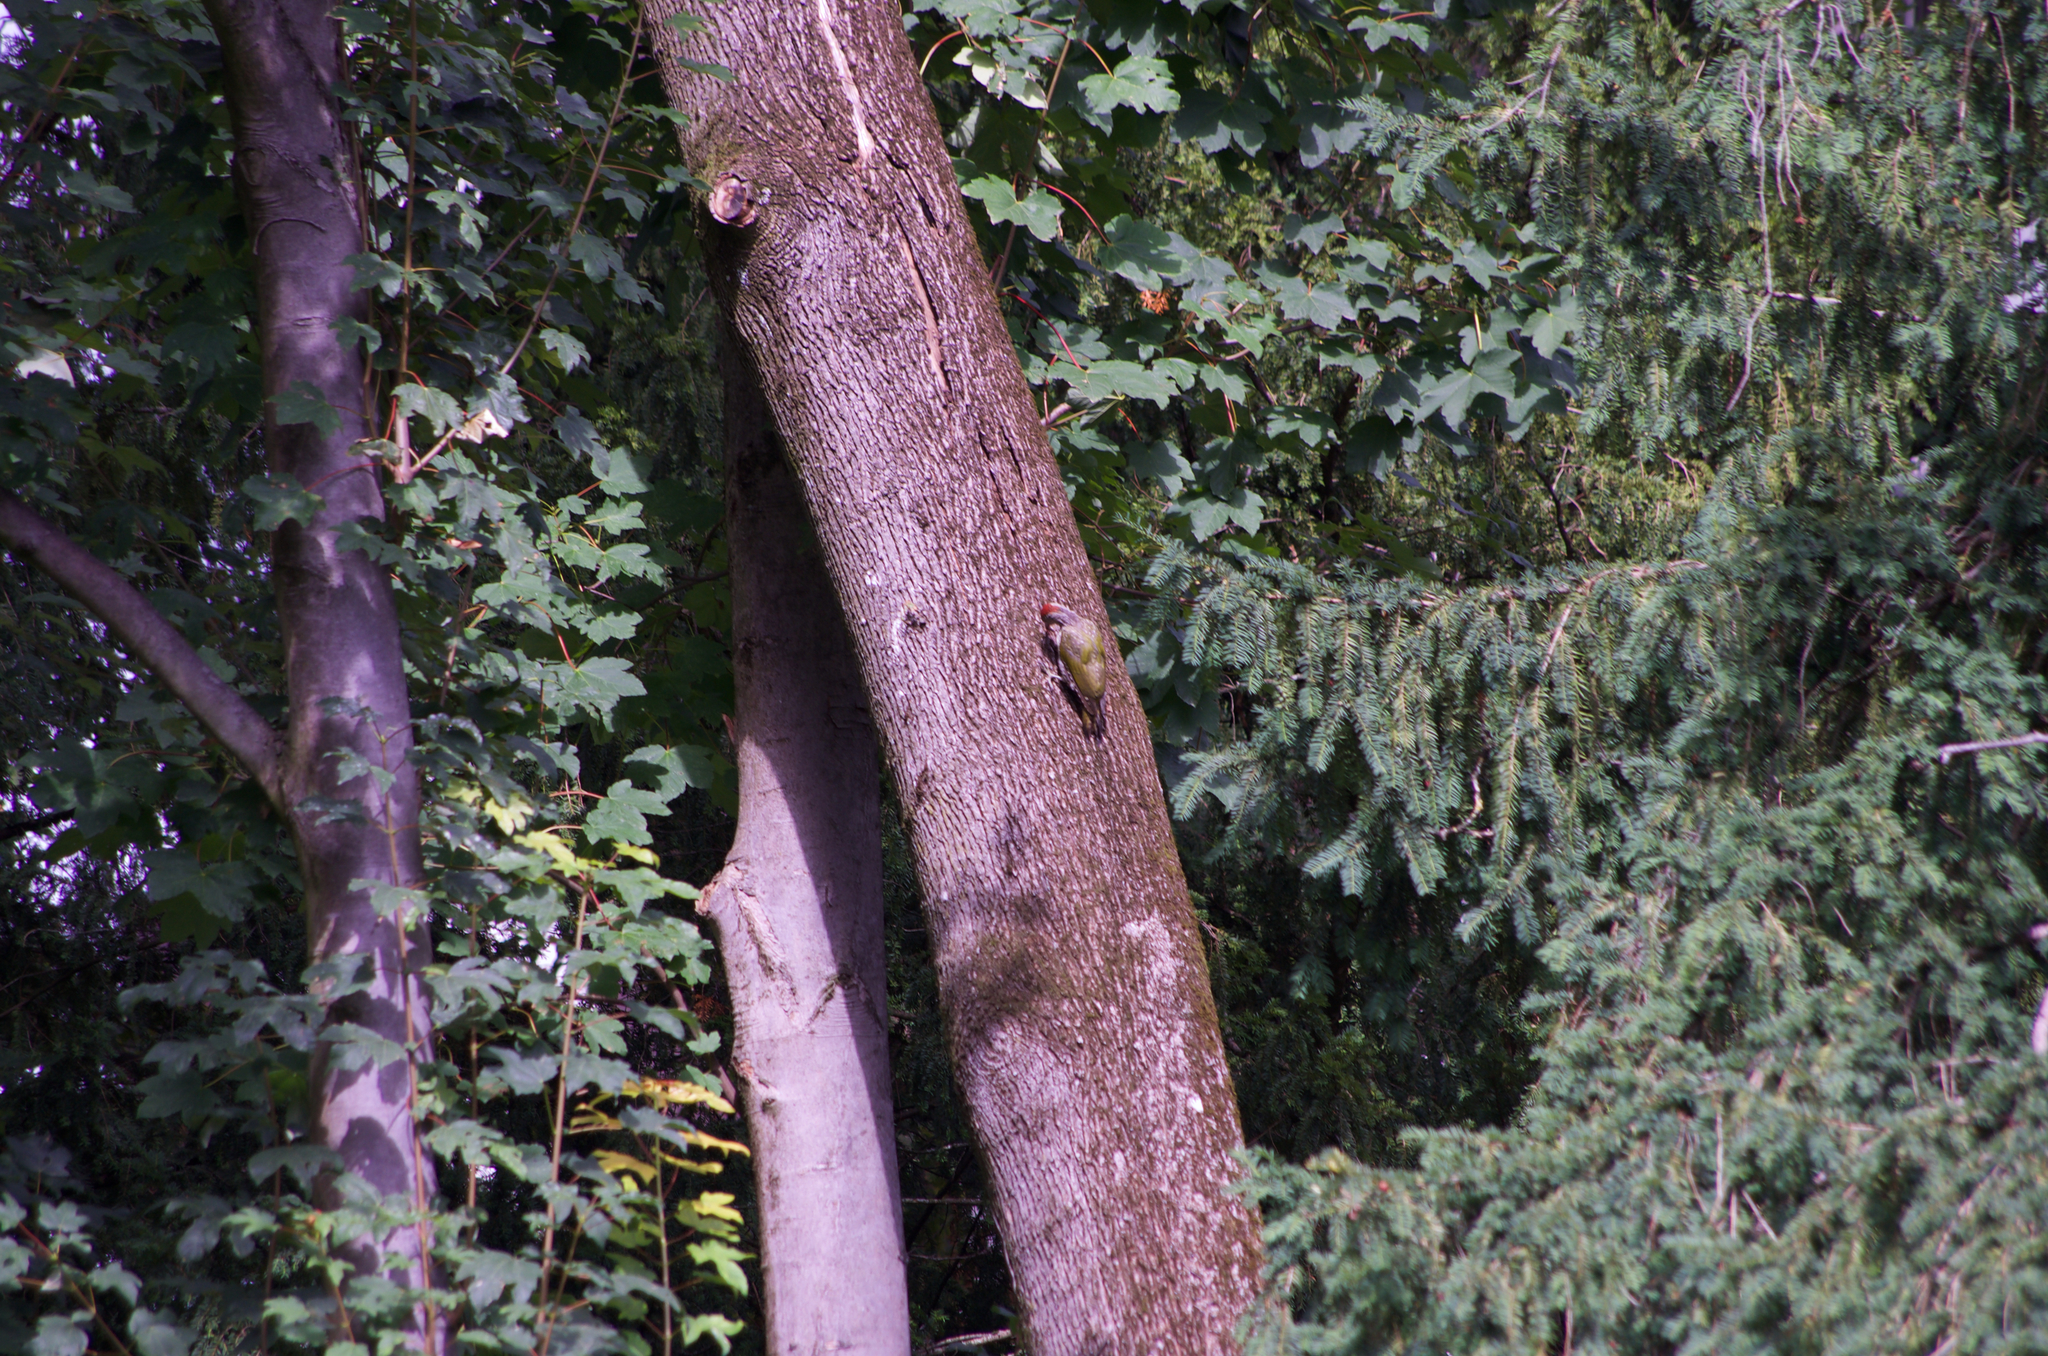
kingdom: Animalia
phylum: Chordata
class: Aves
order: Piciformes
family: Picidae
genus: Picus
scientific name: Picus viridis
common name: European green woodpecker
